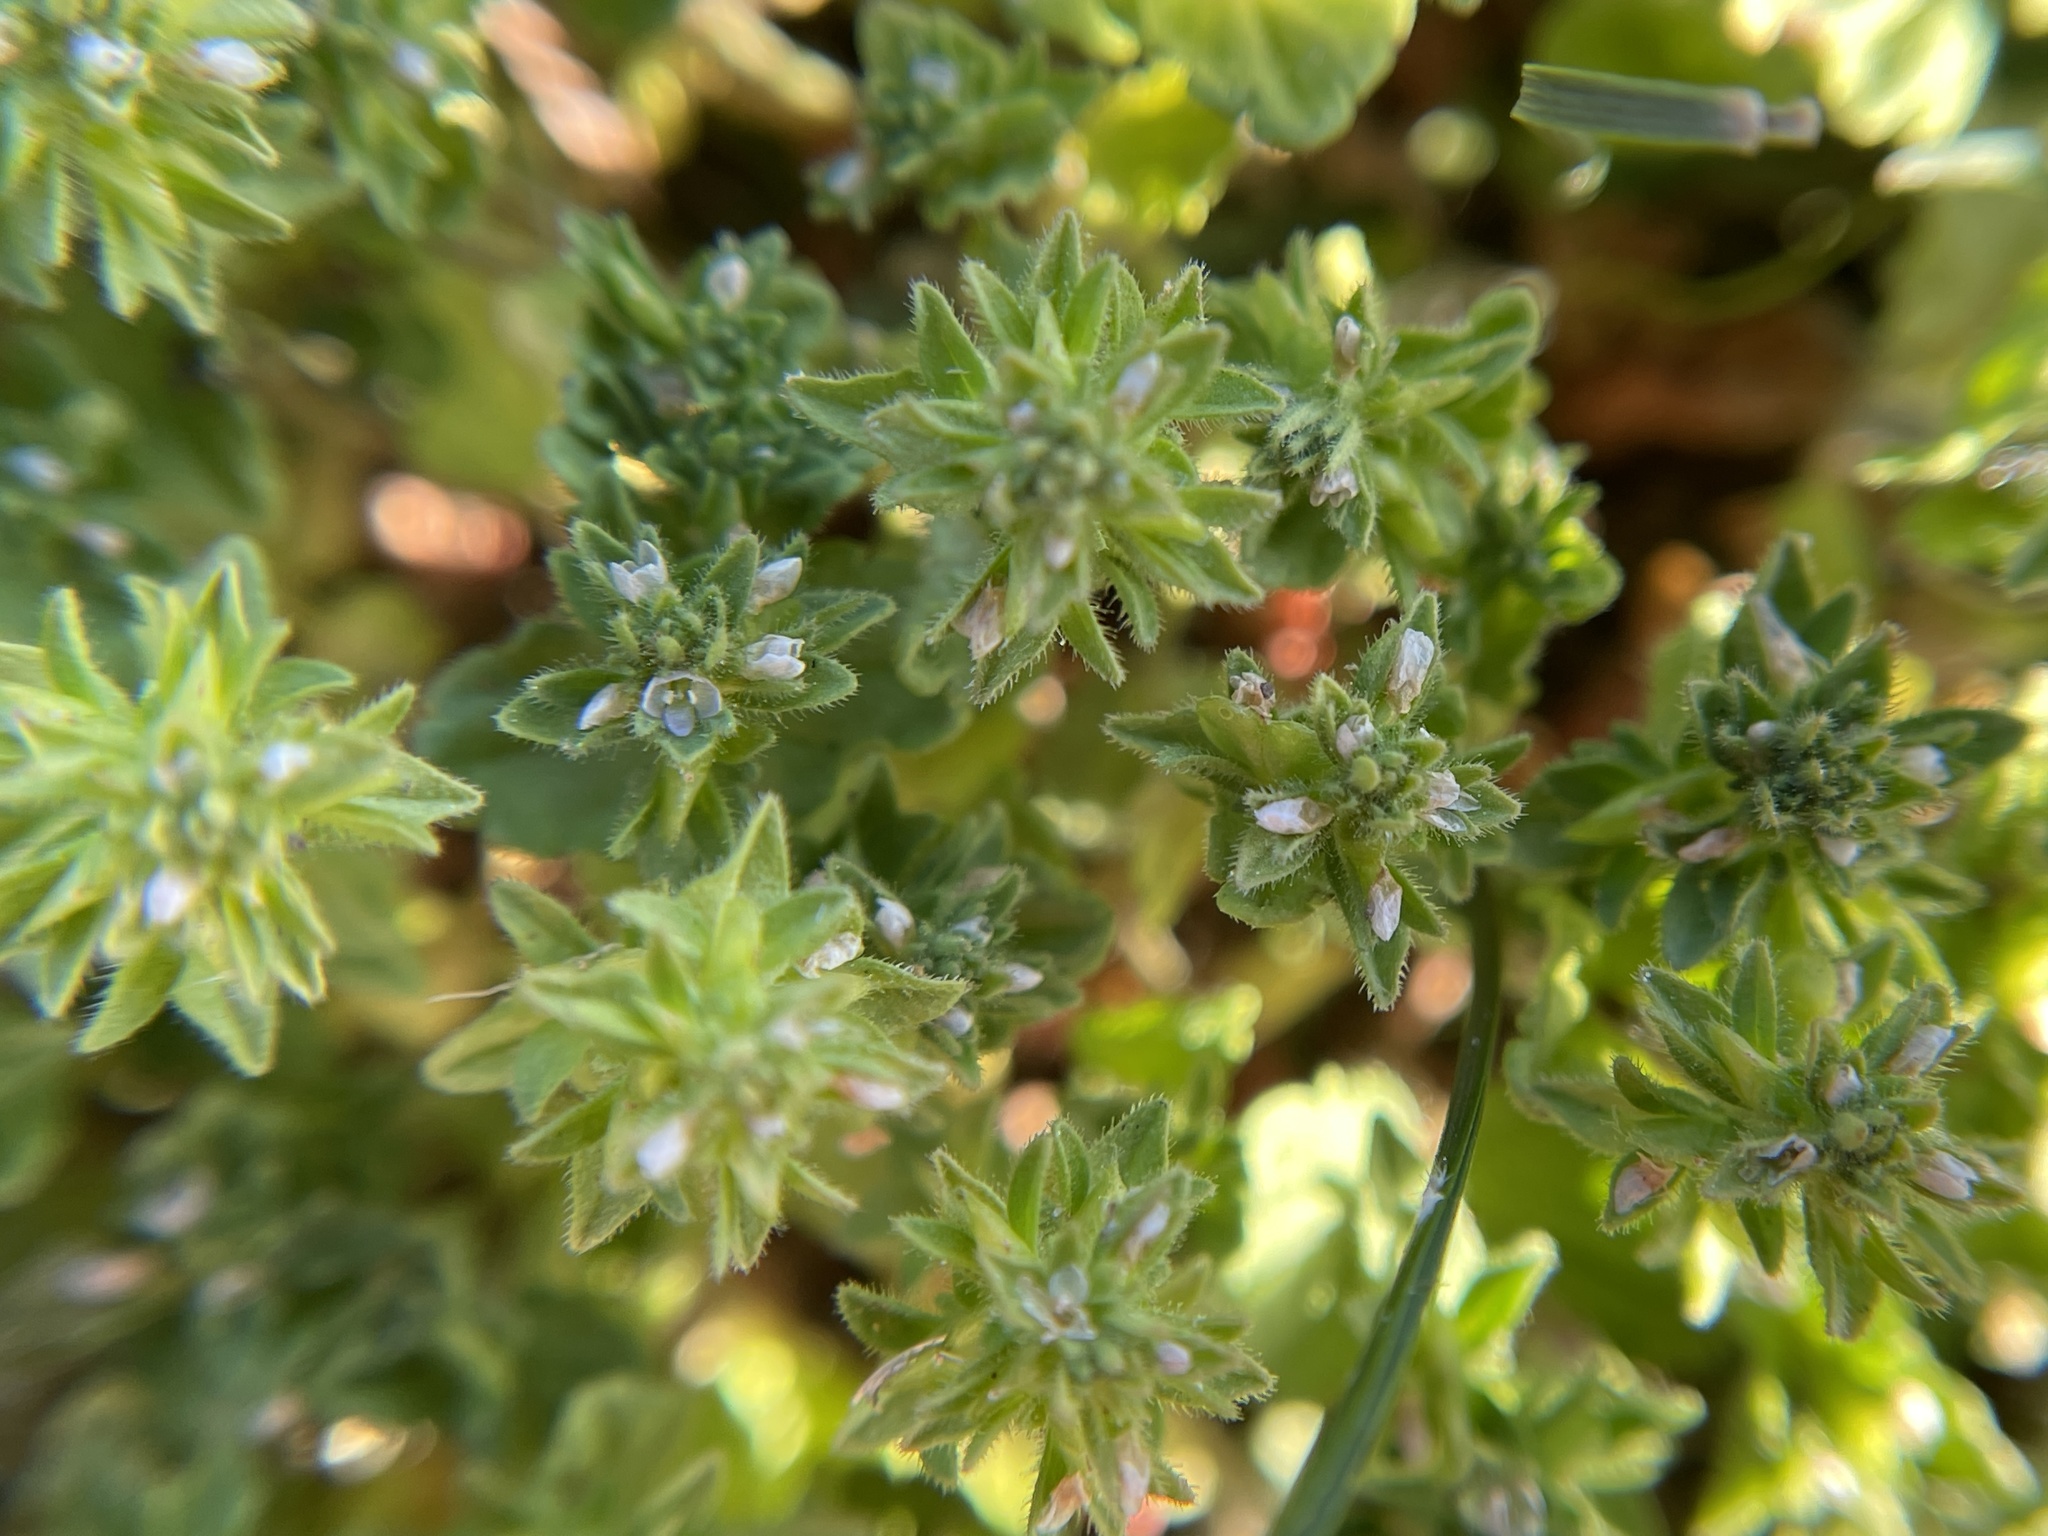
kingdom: Plantae
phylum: Tracheophyta
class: Magnoliopsida
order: Lamiales
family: Plantaginaceae
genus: Veronica
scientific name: Veronica arvensis
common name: Corn speedwell
